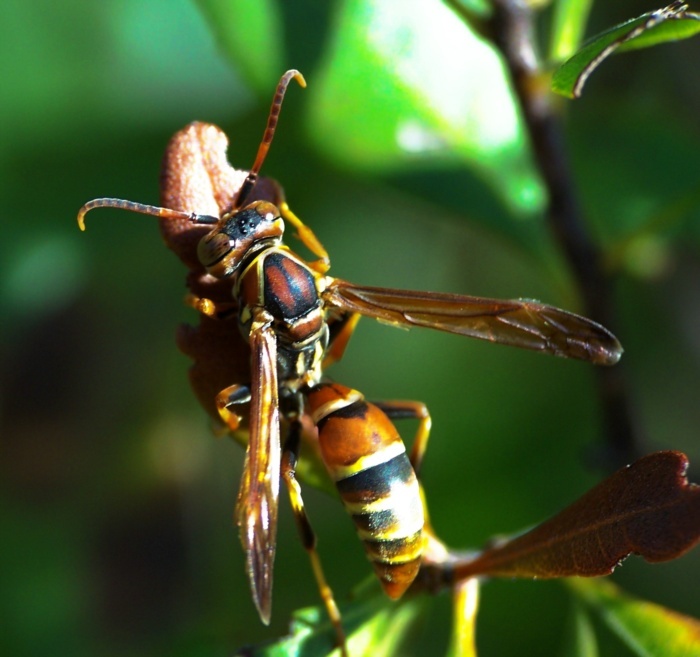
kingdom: Animalia
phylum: Arthropoda
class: Insecta
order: Hymenoptera
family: Eumenidae
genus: Polistes
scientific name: Polistes dorsalis
